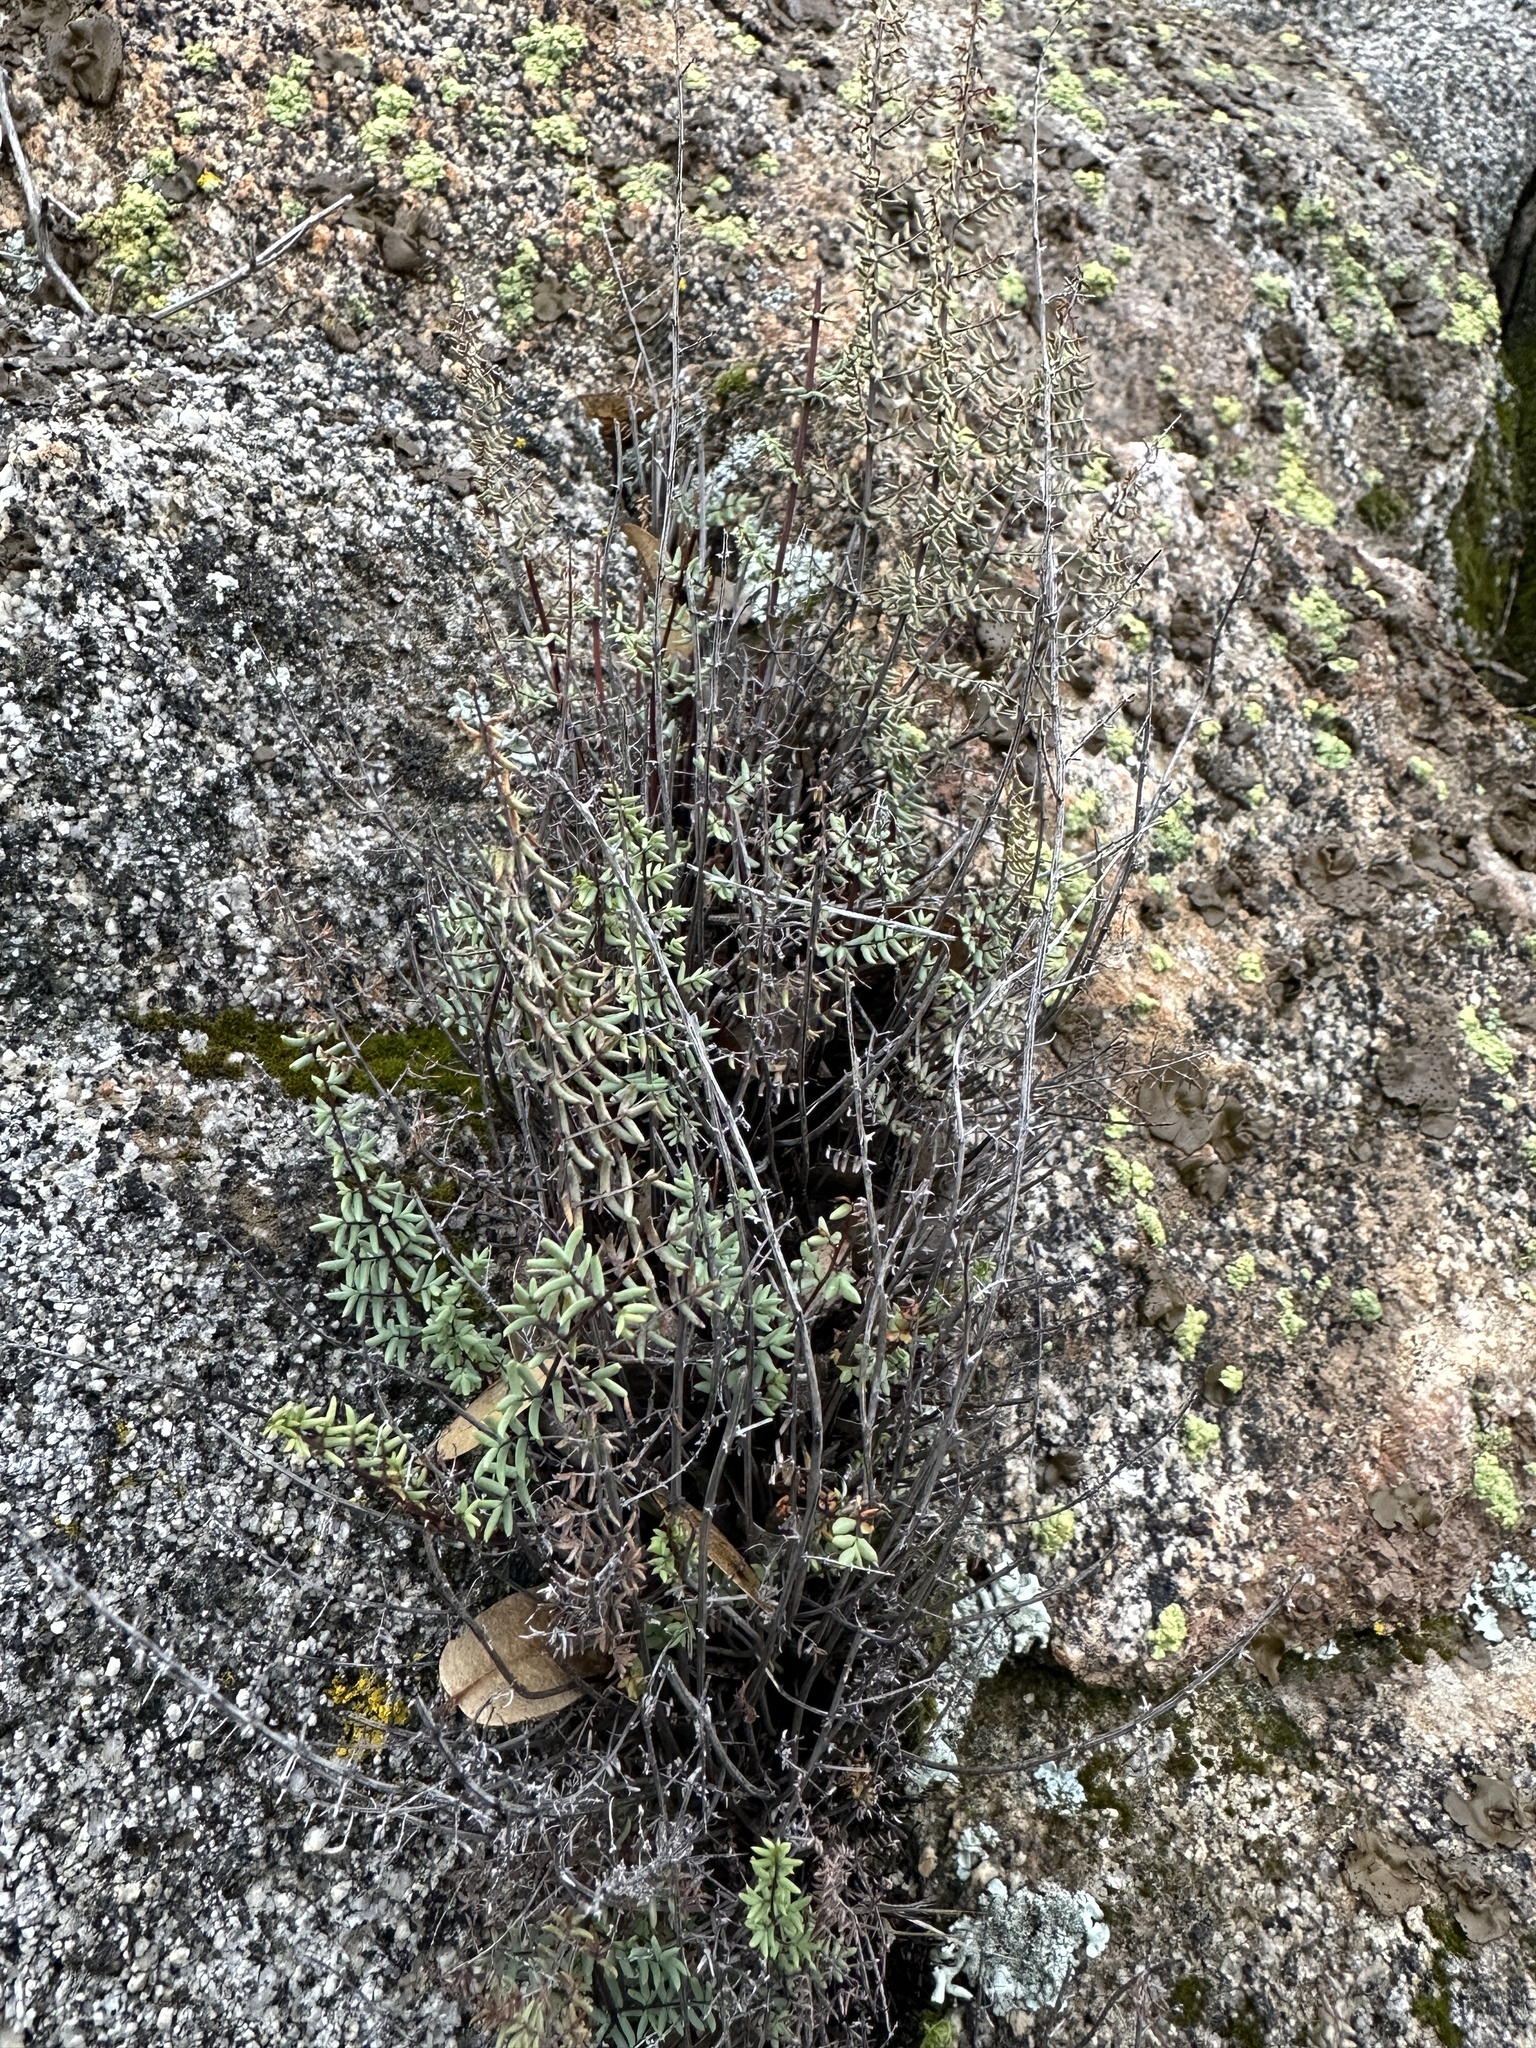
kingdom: Plantae
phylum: Tracheophyta
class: Polypodiopsida
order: Polypodiales
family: Pteridaceae
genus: Pellaea
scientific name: Pellaea mucronata
